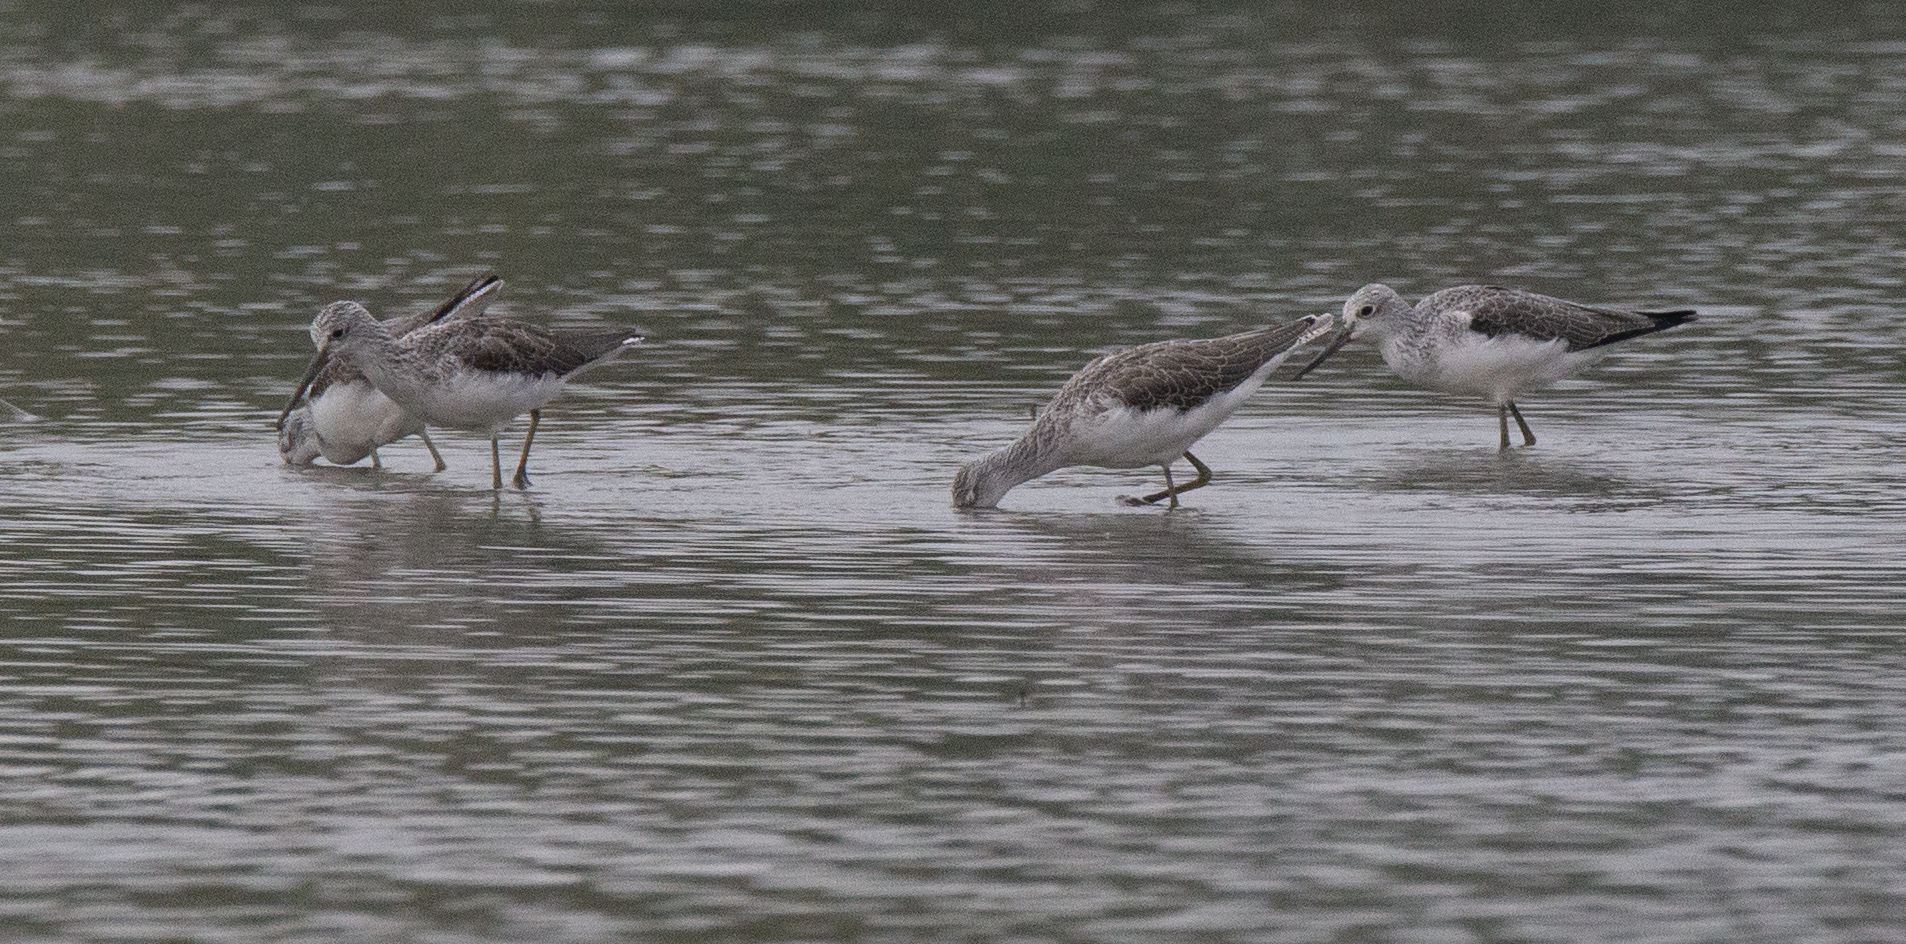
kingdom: Animalia
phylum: Chordata
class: Aves
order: Charadriiformes
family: Scolopacidae
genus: Tringa
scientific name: Tringa nebularia
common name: Common greenshank
